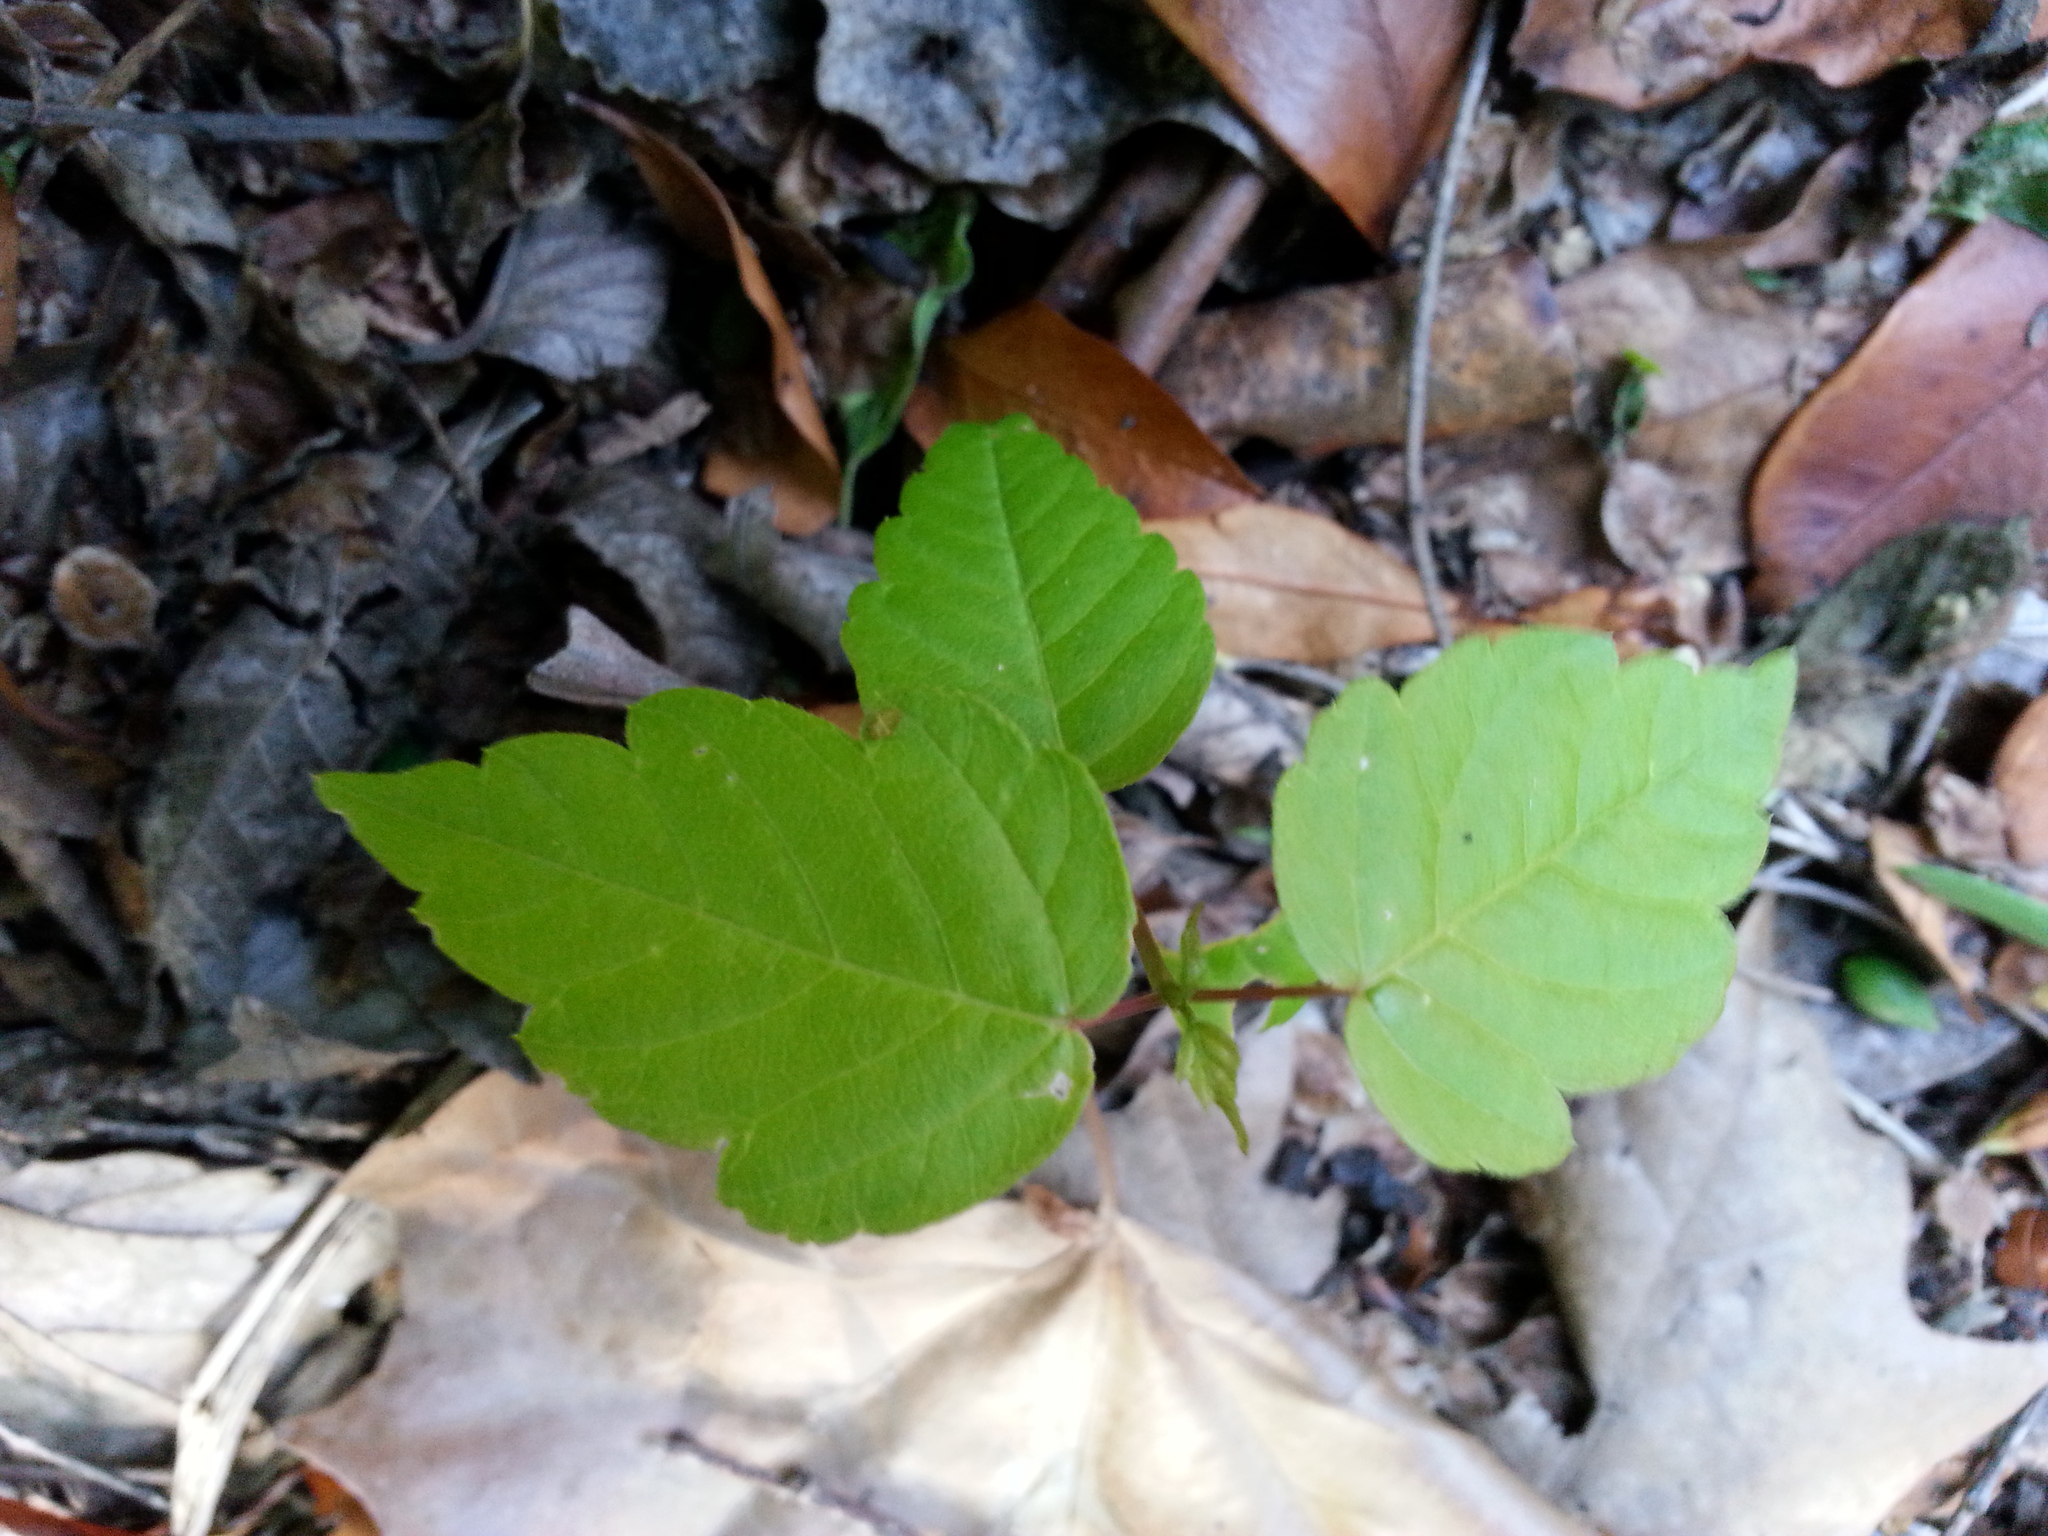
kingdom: Plantae
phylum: Tracheophyta
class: Magnoliopsida
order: Sapindales
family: Sapindaceae
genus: Acer
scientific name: Acer negundo
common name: Ashleaf maple
